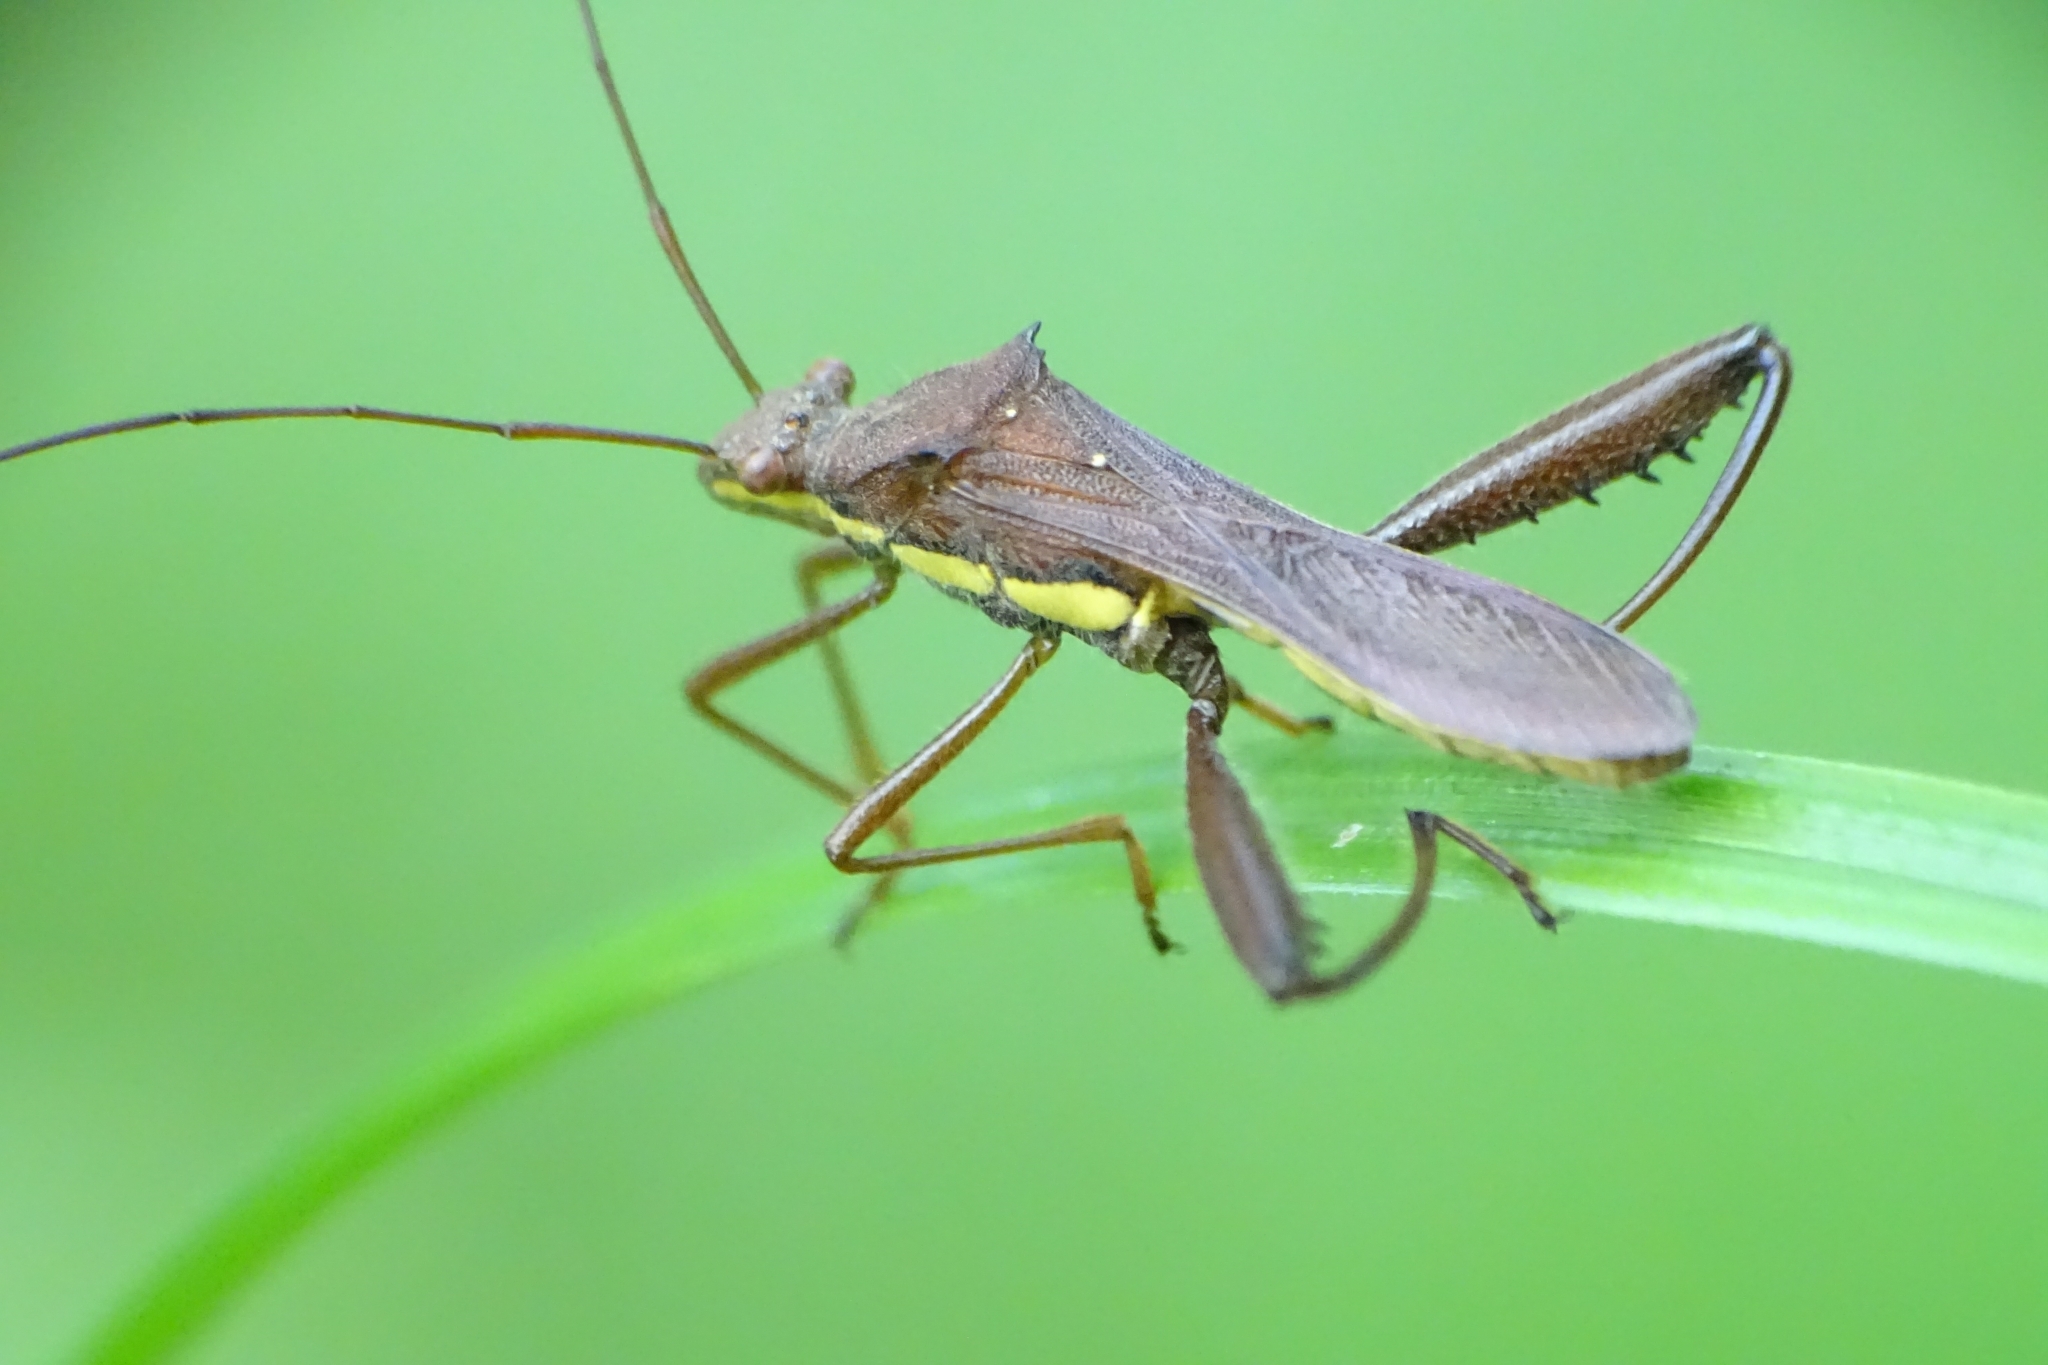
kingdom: Animalia
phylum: Arthropoda
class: Insecta
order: Hemiptera
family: Alydidae
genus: Riptortus
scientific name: Riptortus linearis
